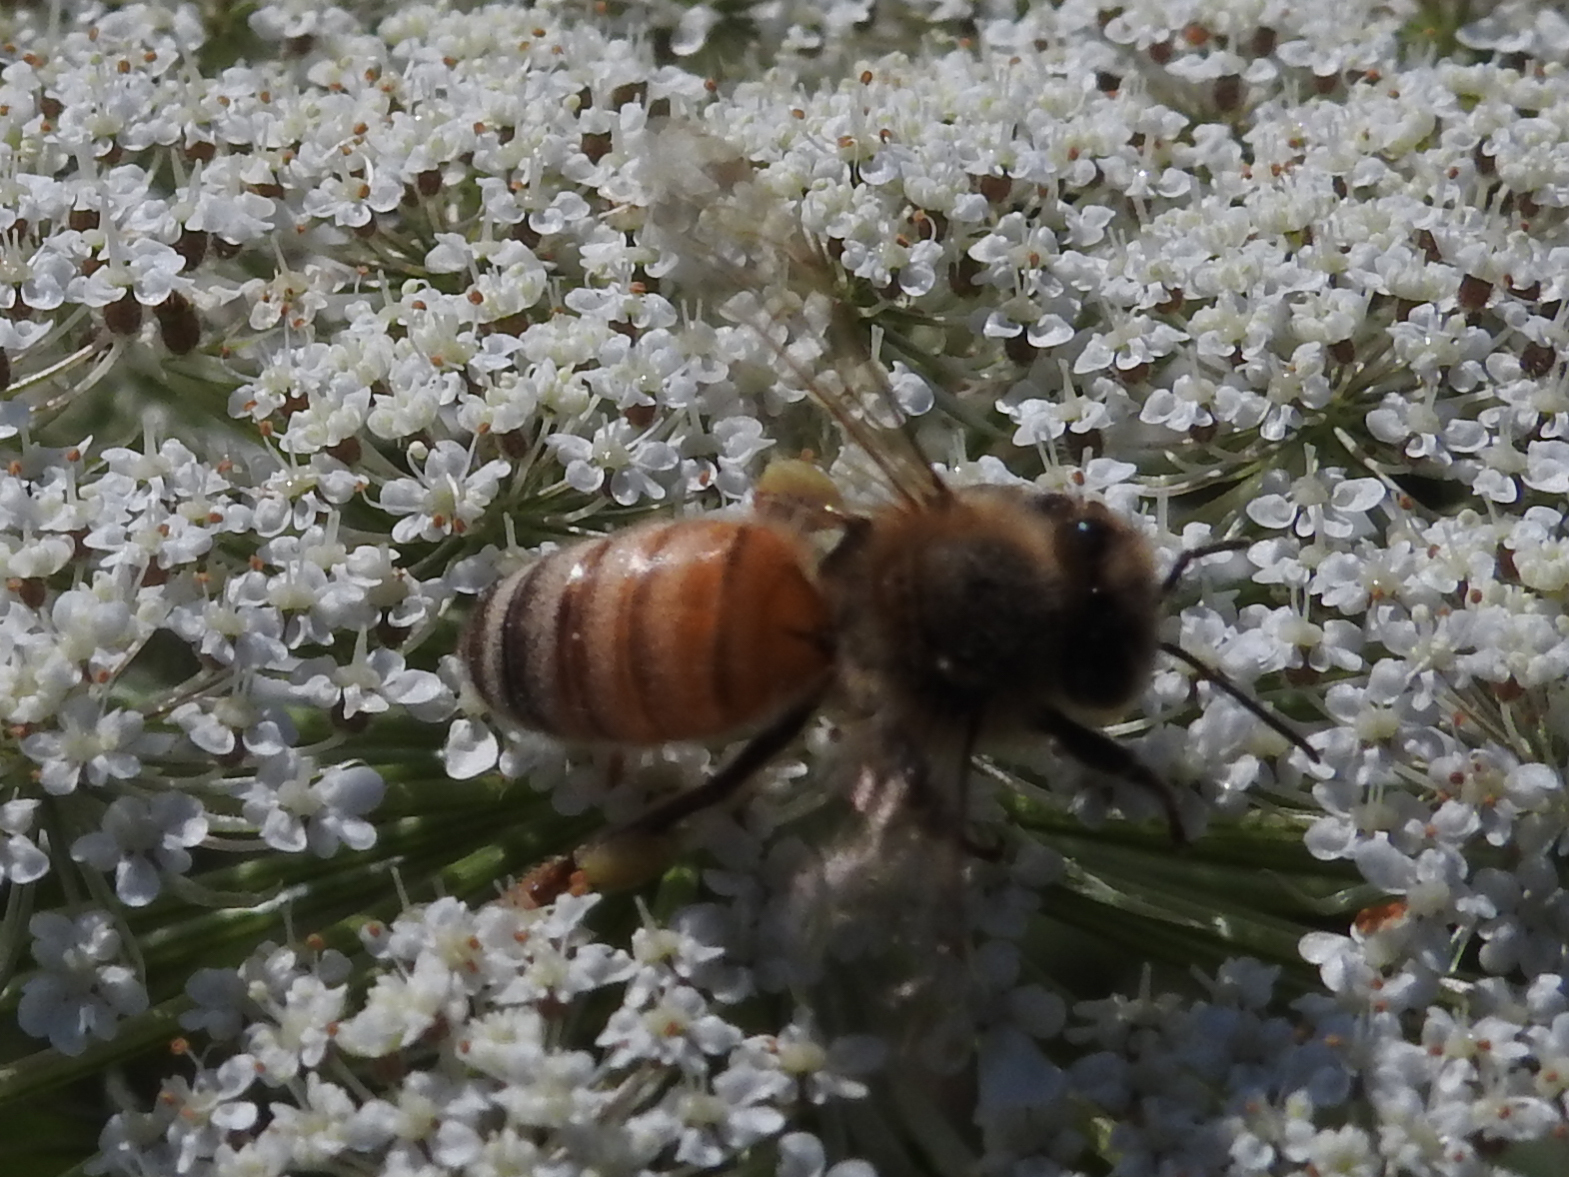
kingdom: Animalia
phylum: Arthropoda
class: Insecta
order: Hymenoptera
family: Apidae
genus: Apis
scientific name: Apis mellifera
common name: Honey bee
